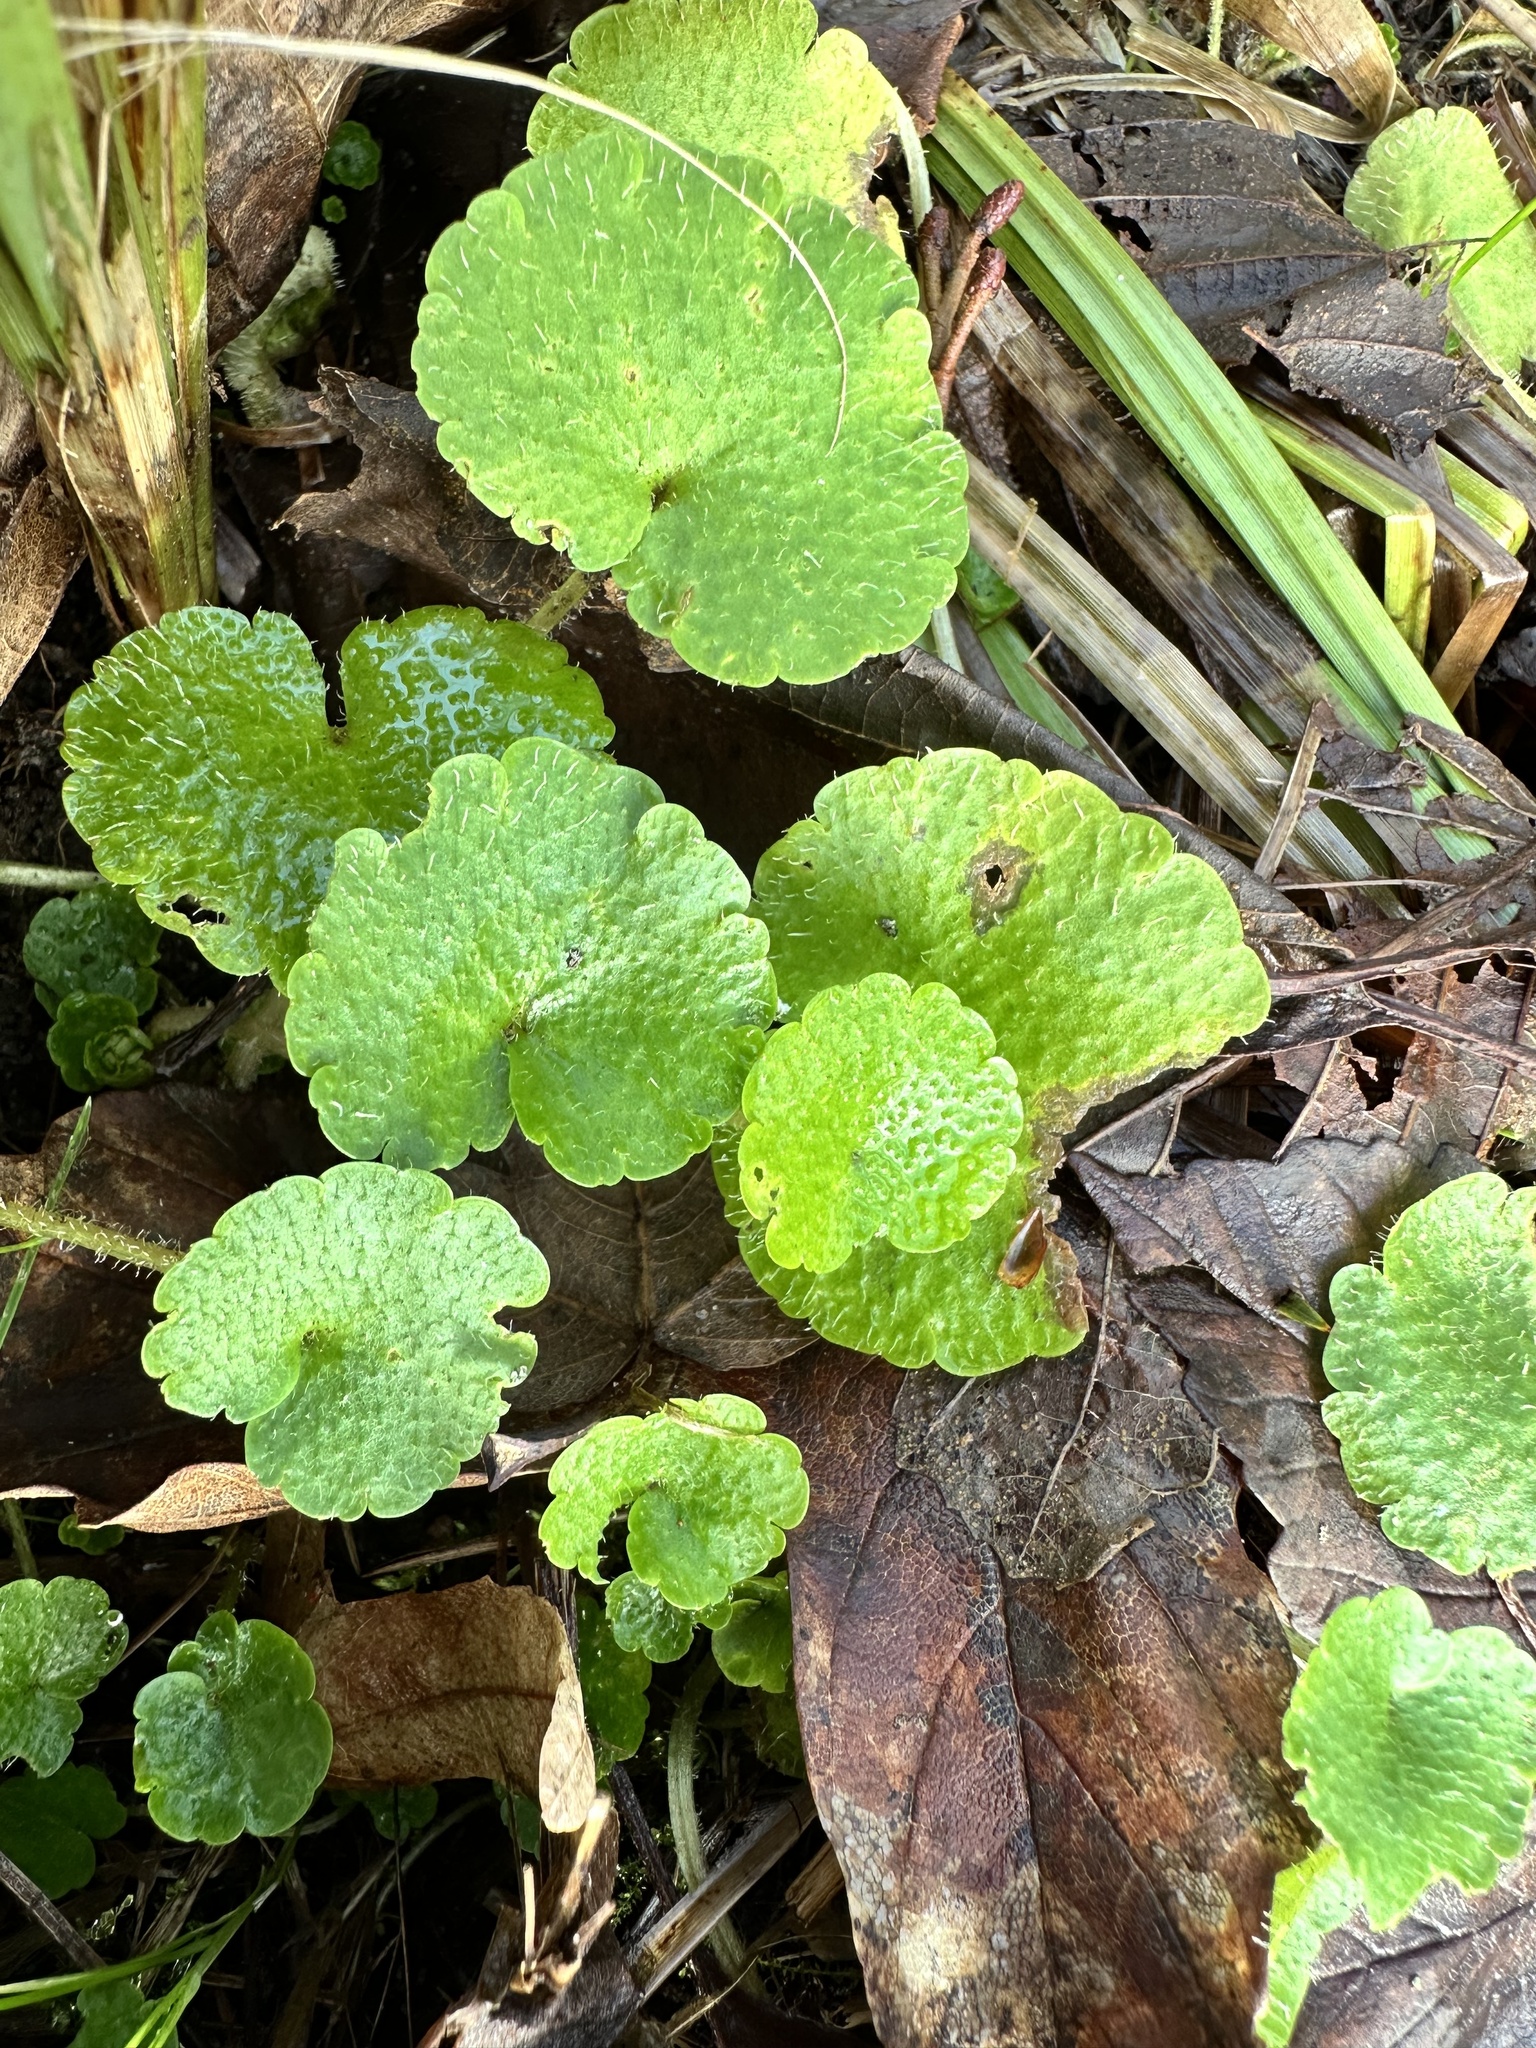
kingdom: Plantae
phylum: Tracheophyta
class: Magnoliopsida
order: Saxifragales
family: Saxifragaceae
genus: Chrysosplenium
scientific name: Chrysosplenium alternifolium
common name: Alternate-leaved golden-saxifrage
